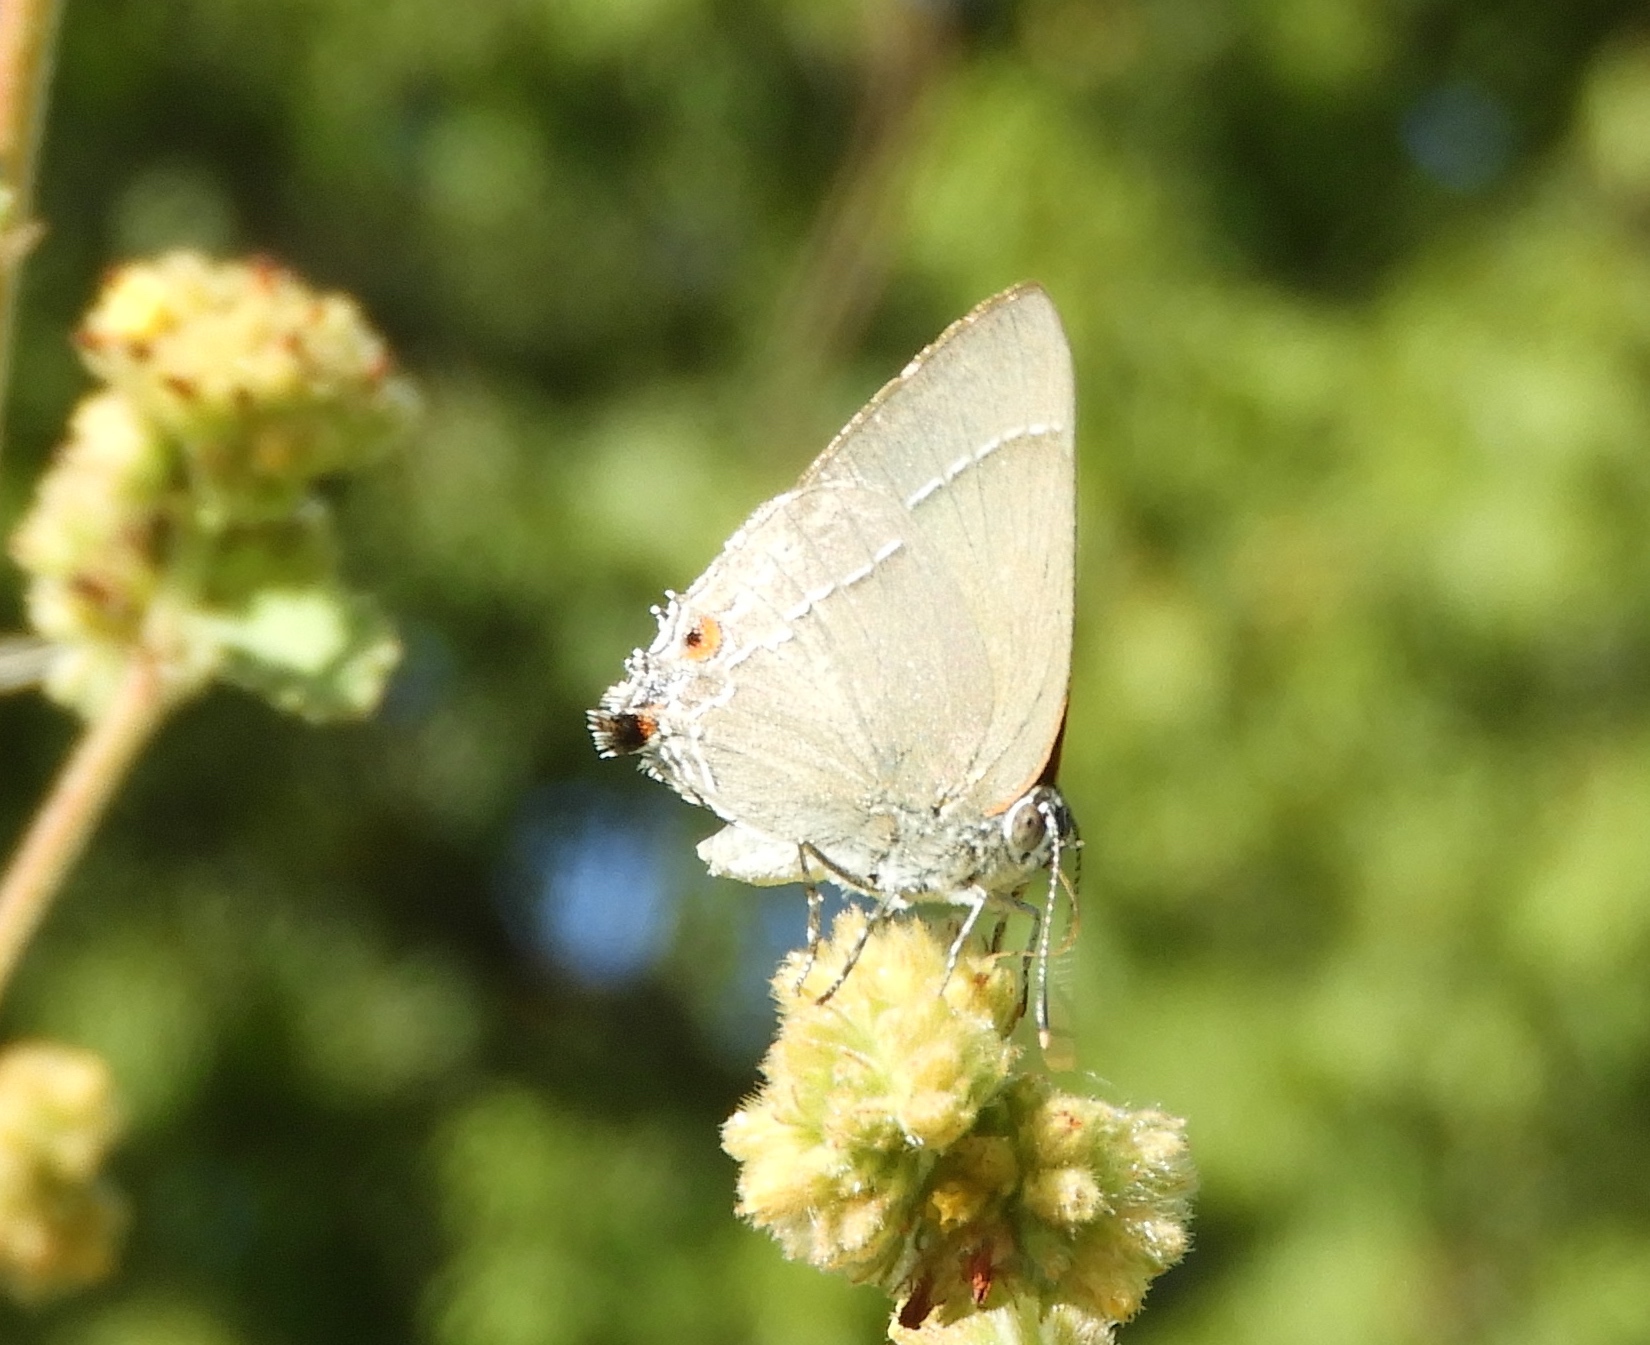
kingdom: Animalia
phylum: Arthropoda
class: Insecta
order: Lepidoptera
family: Lycaenidae
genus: Thecla
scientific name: Thecla marius
